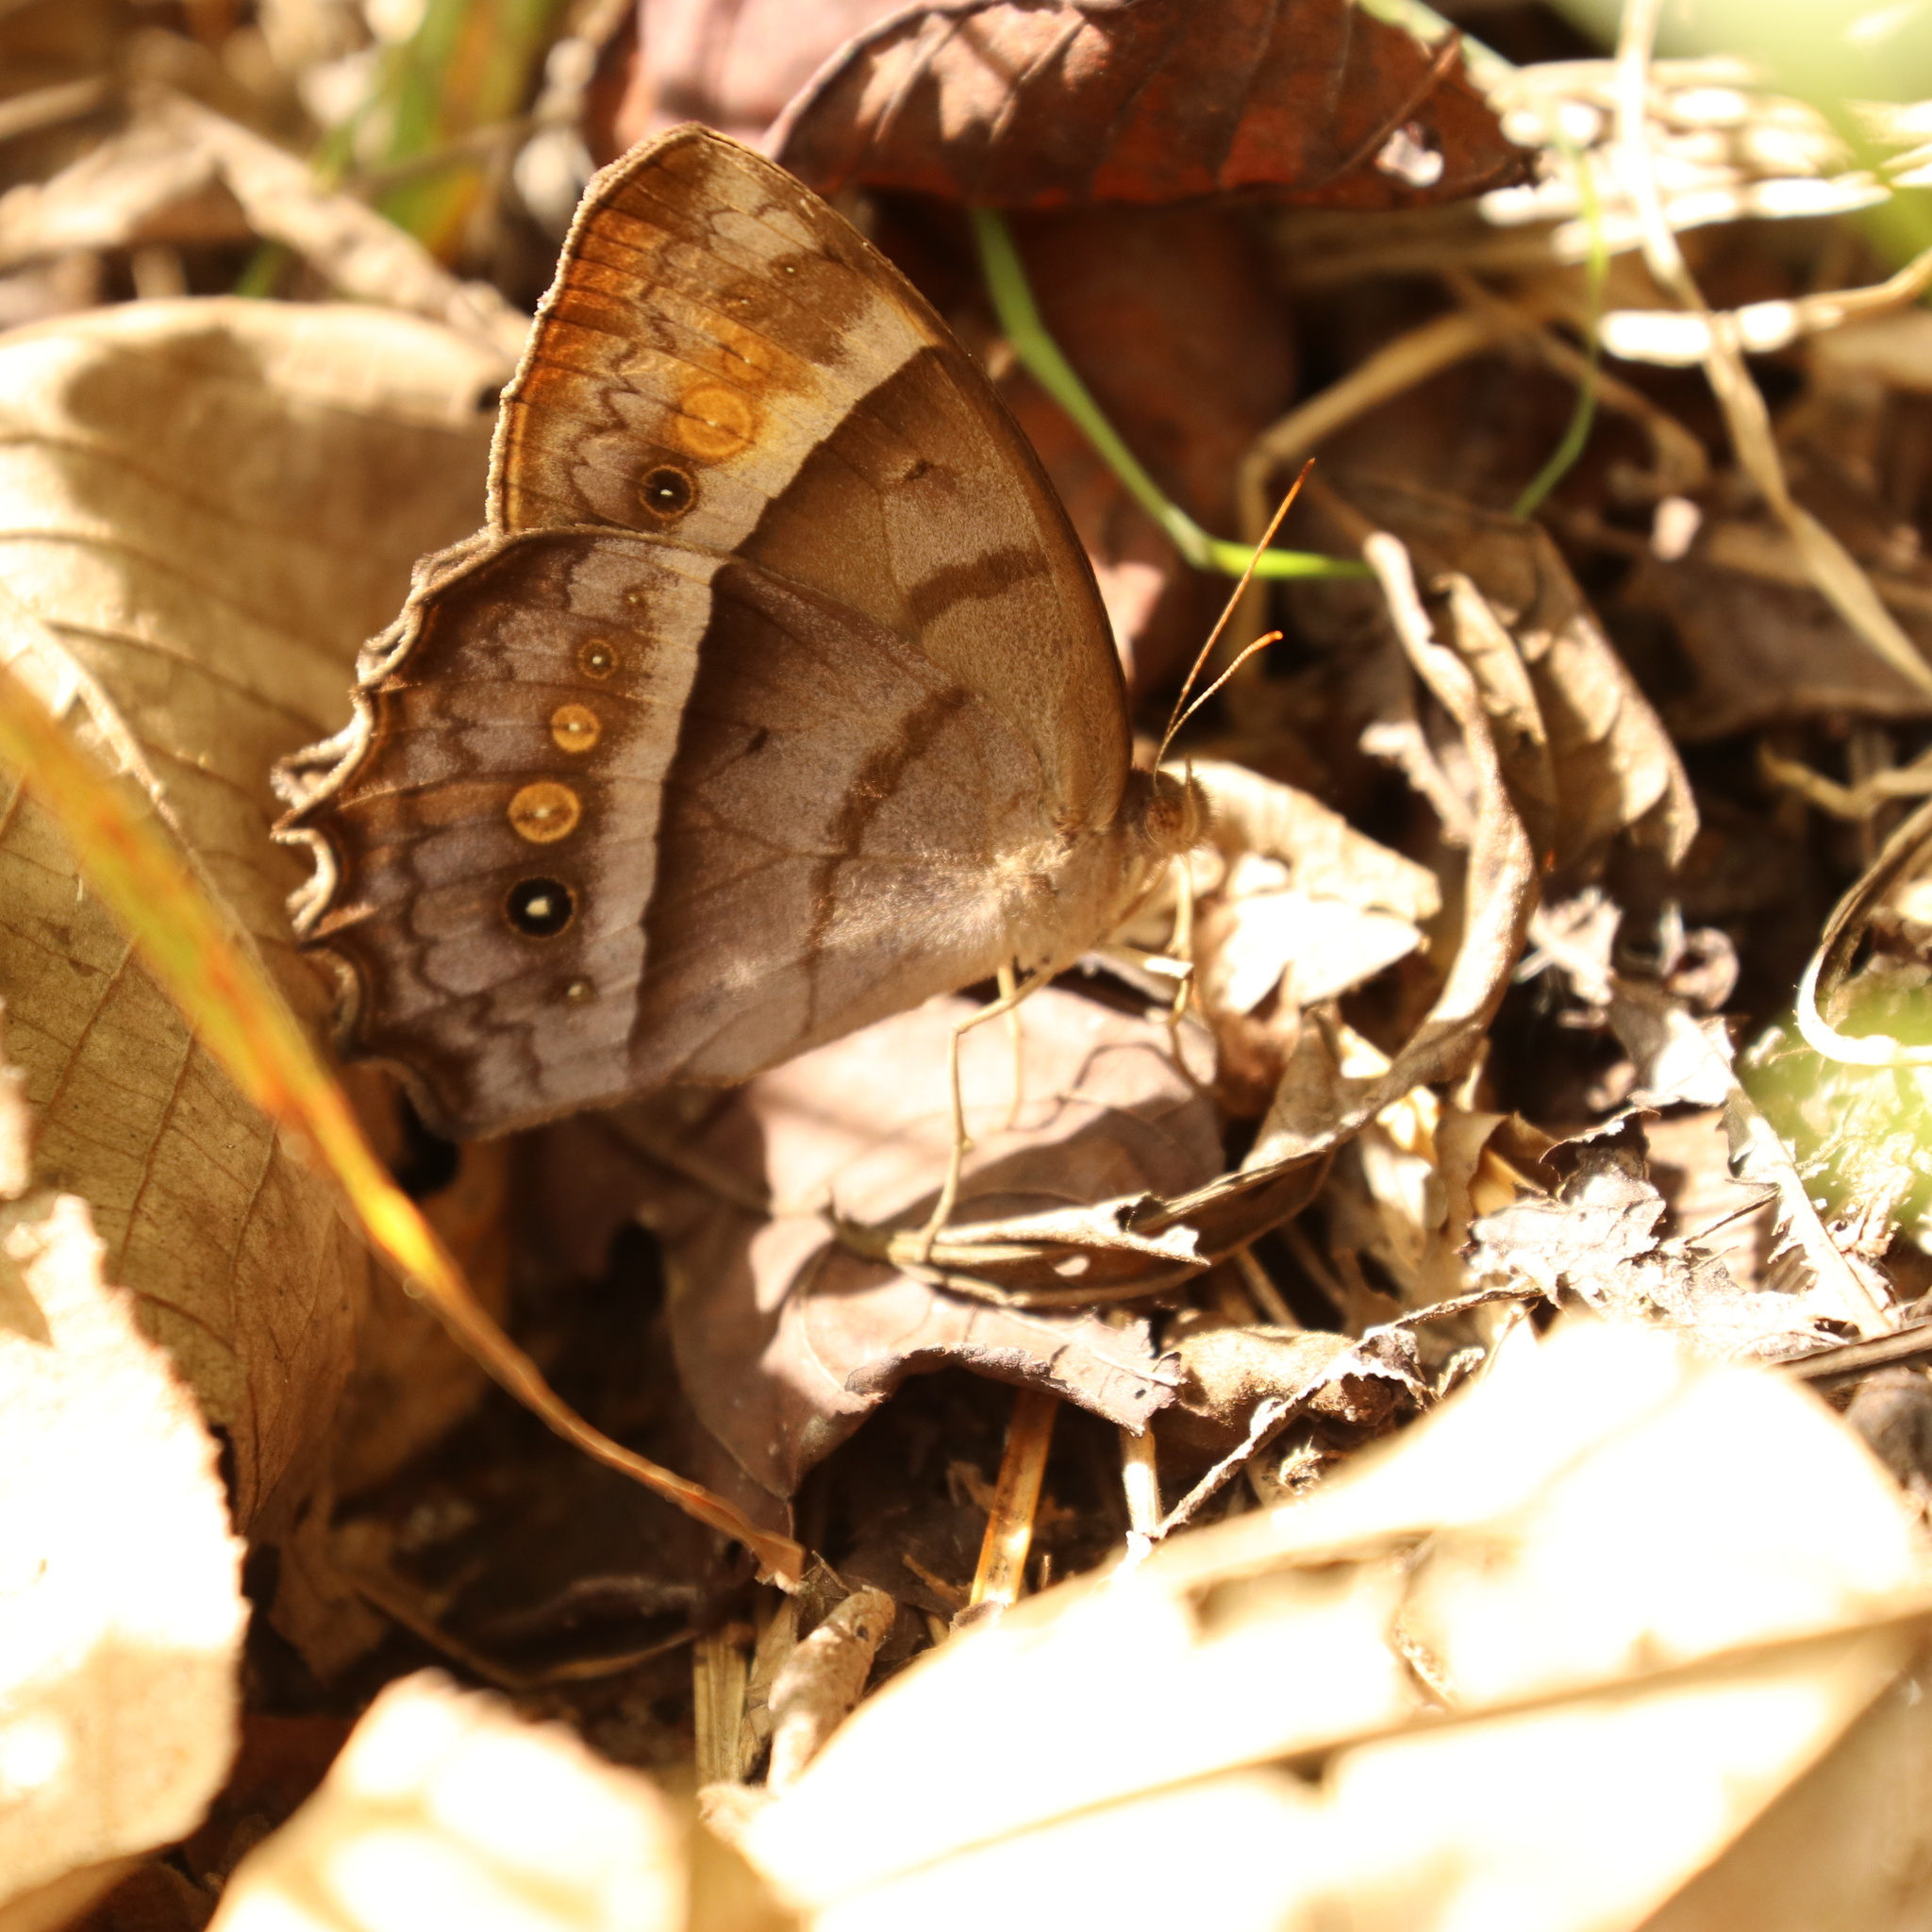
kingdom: Animalia
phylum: Arthropoda
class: Insecta
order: Lepidoptera
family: Nymphalidae
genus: Taygetis
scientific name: Taygetis andromeda
